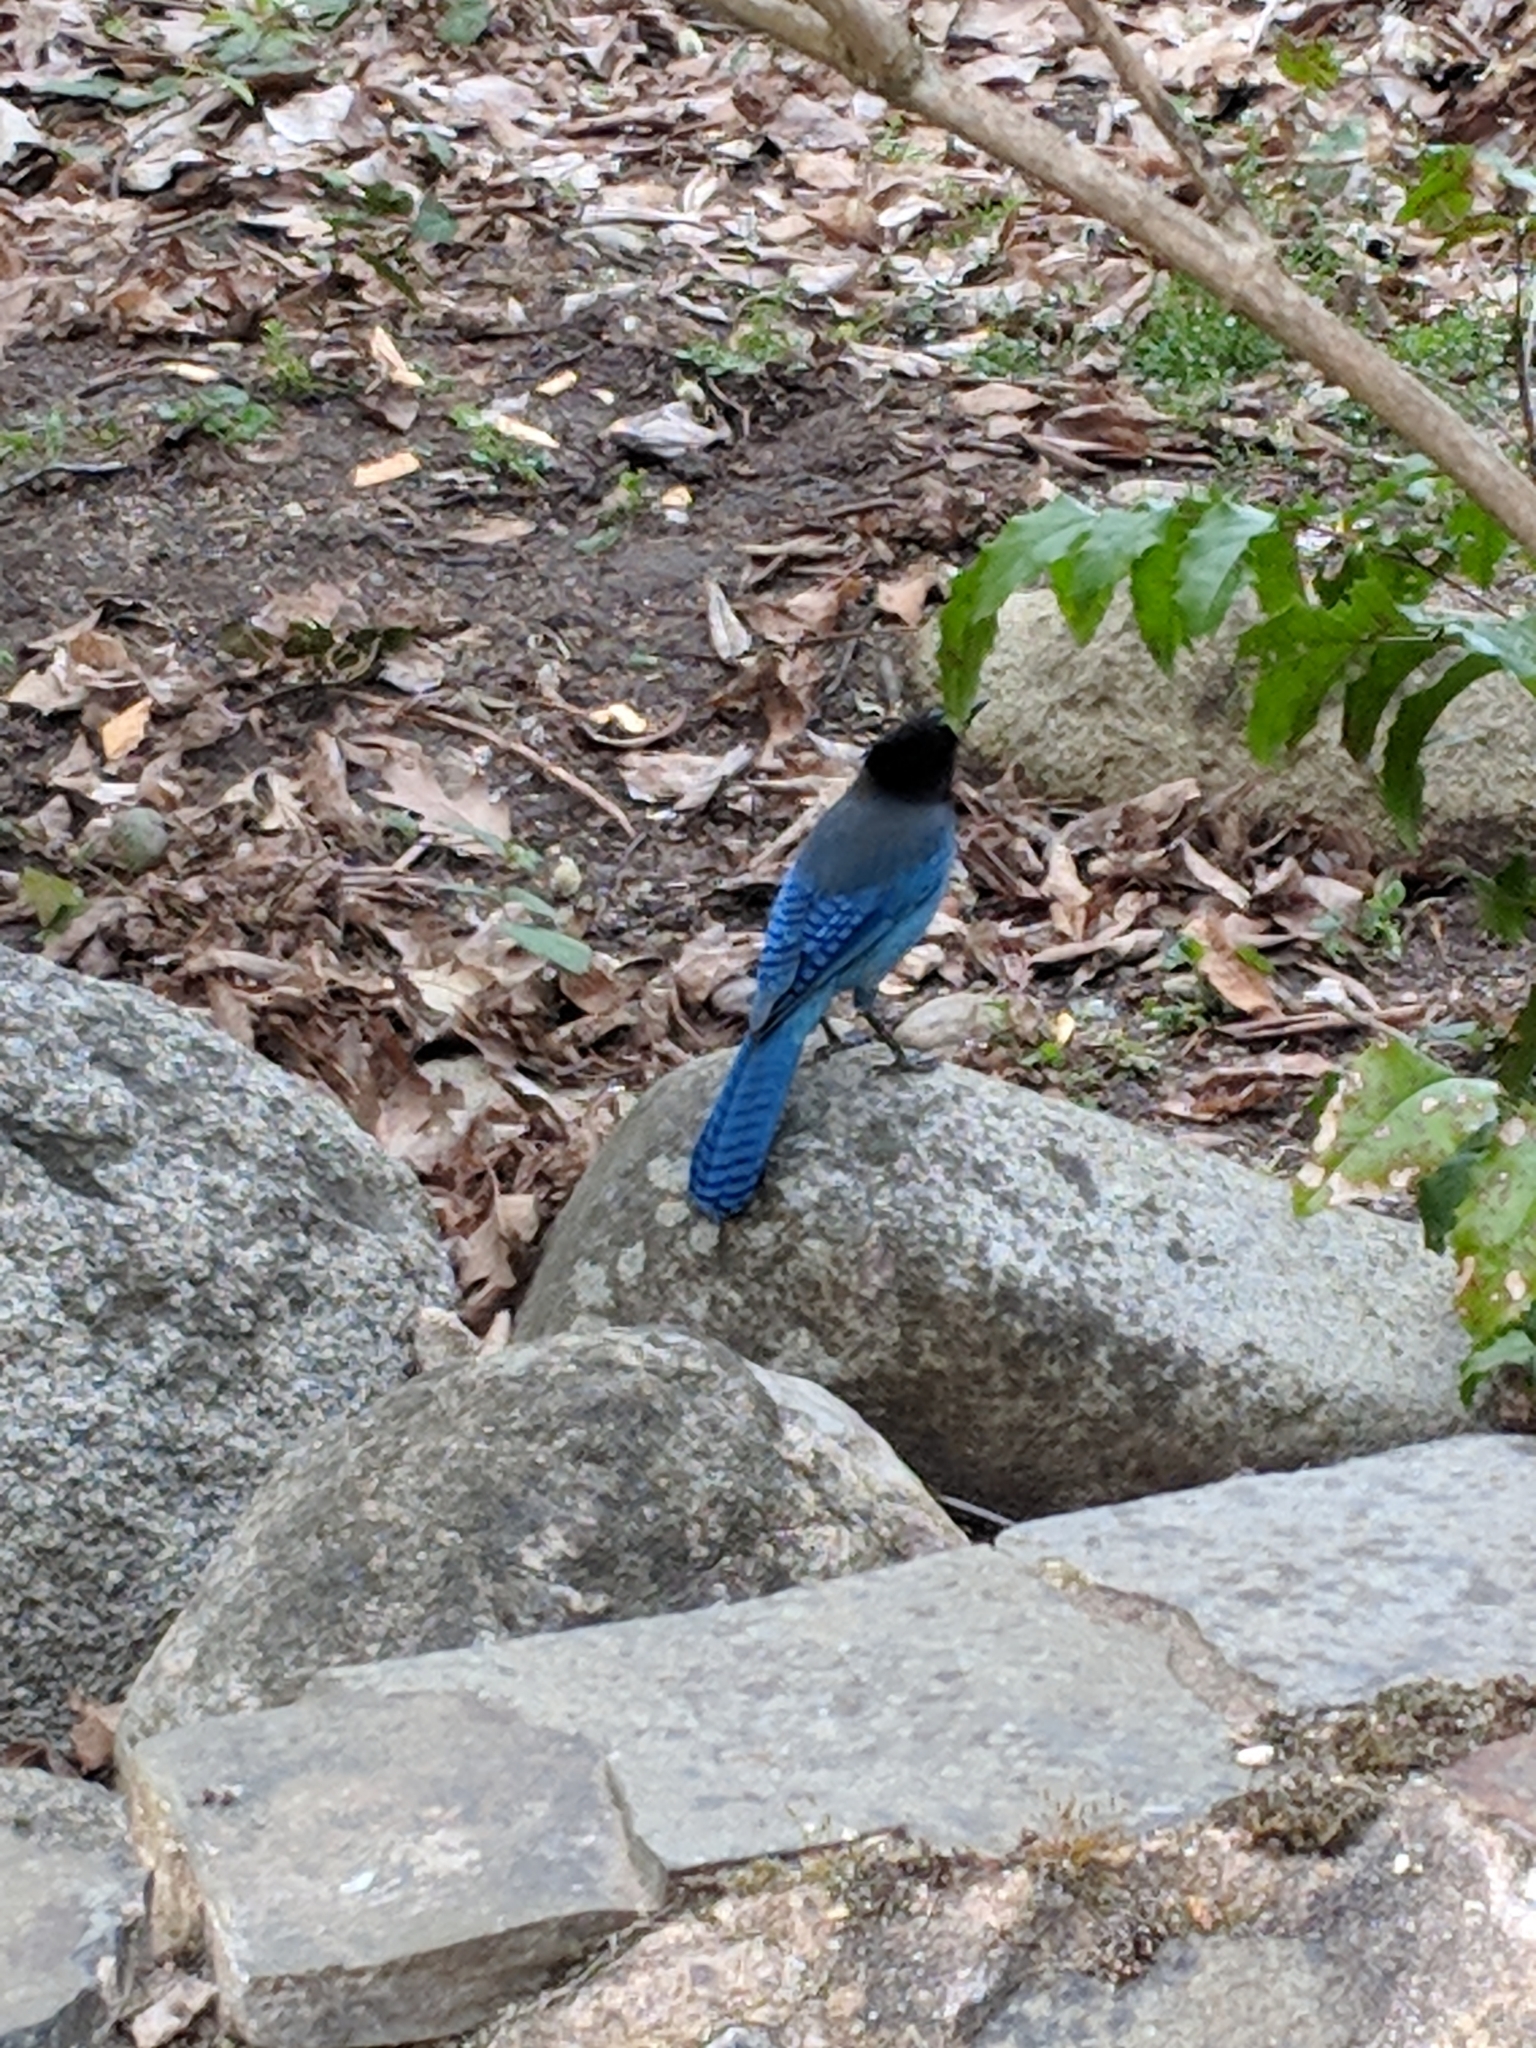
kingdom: Animalia
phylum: Chordata
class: Aves
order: Passeriformes
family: Corvidae
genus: Cyanocitta
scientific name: Cyanocitta stelleri
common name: Steller's jay
